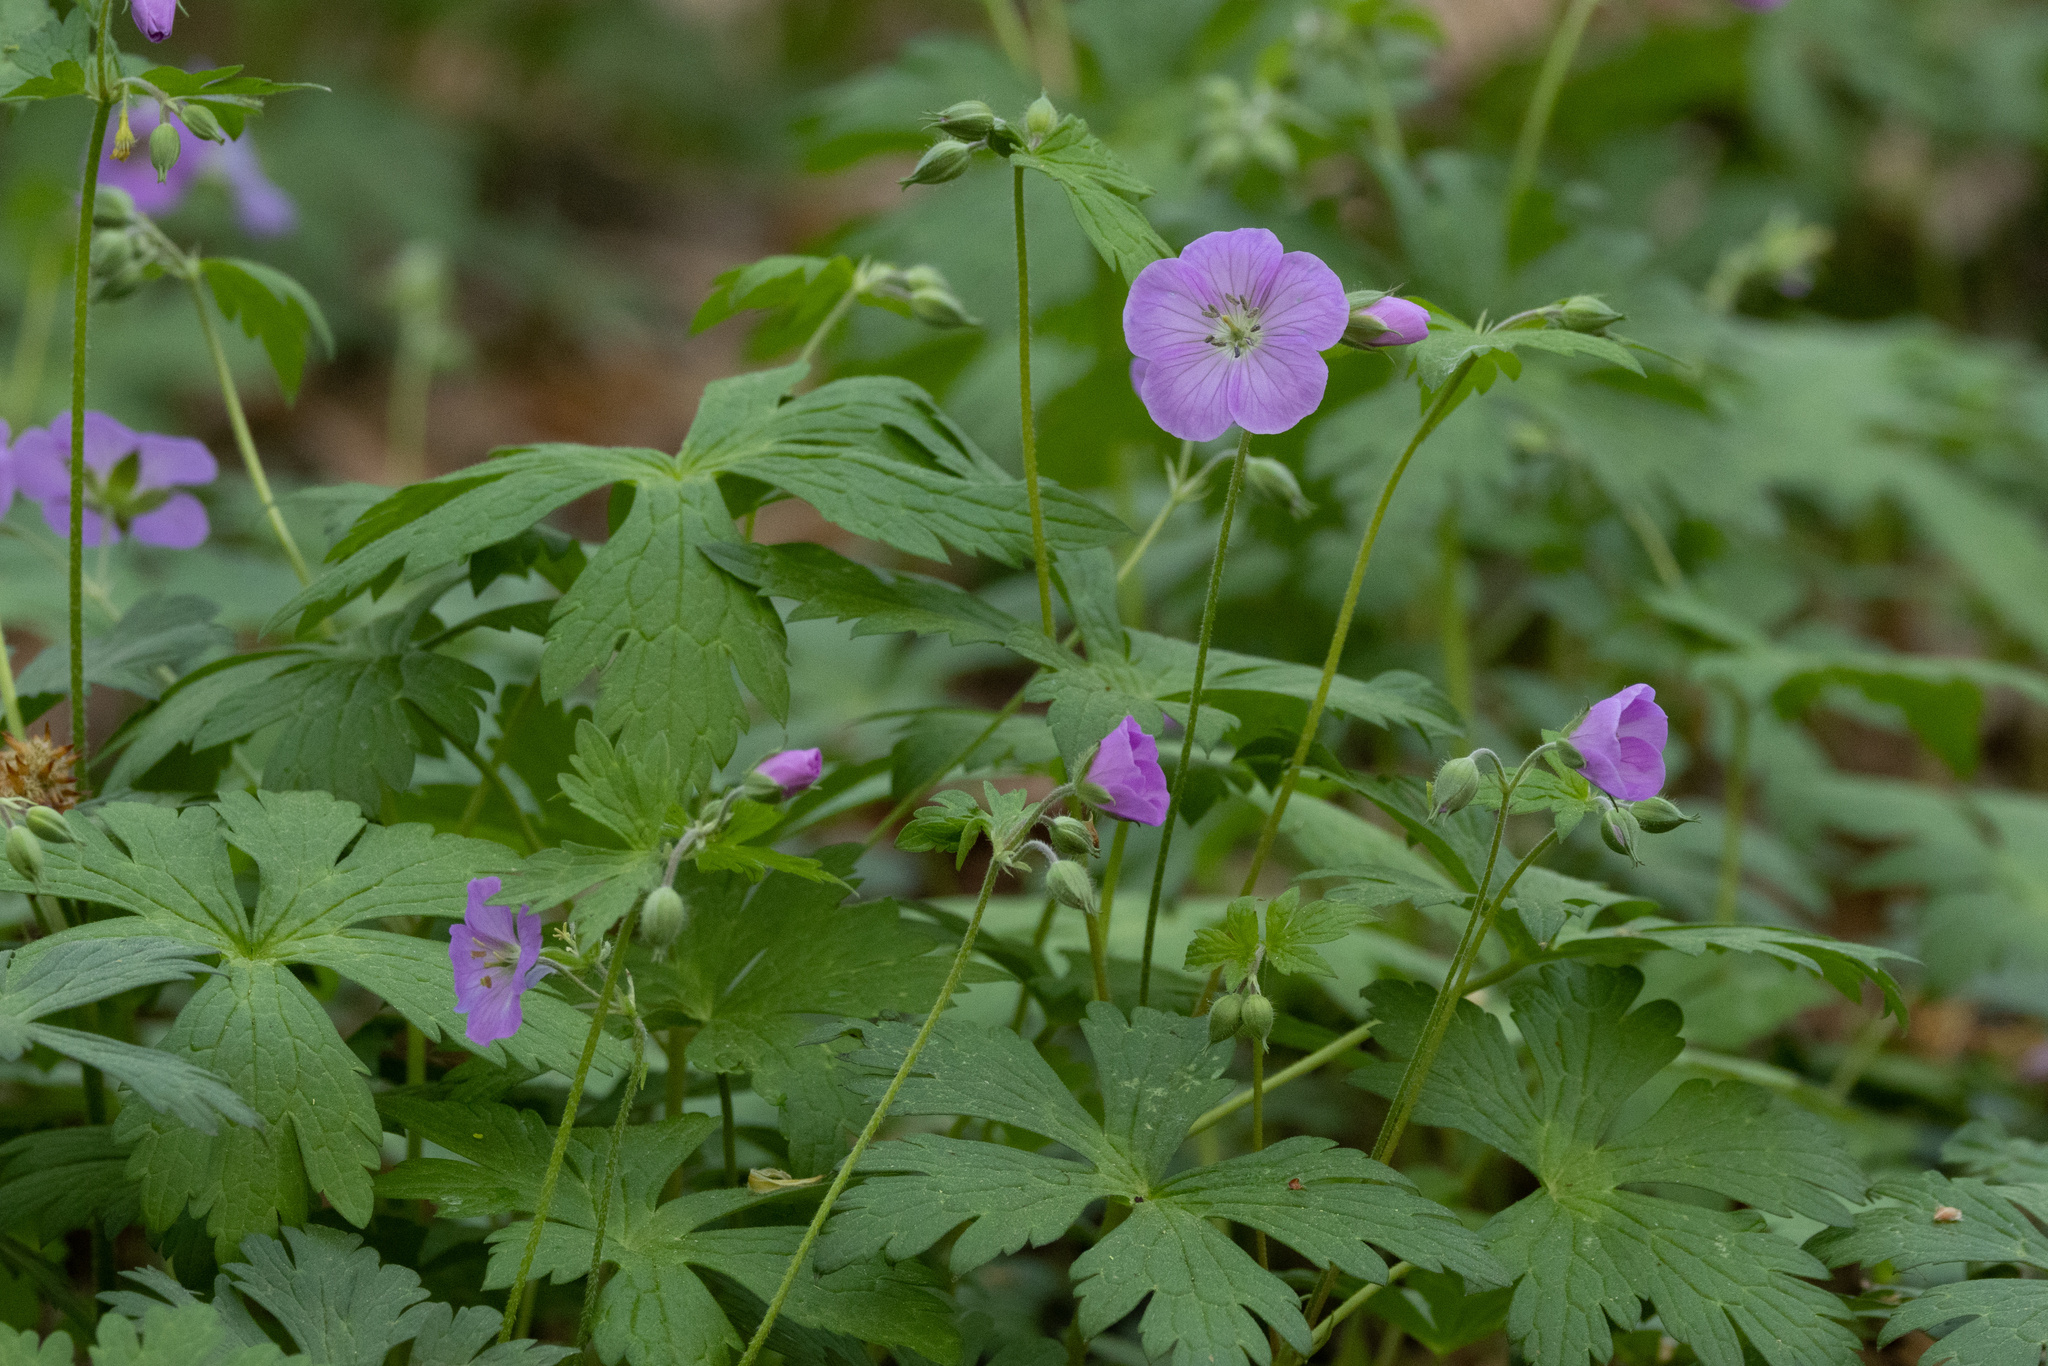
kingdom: Plantae
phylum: Tracheophyta
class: Magnoliopsida
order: Geraniales
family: Geraniaceae
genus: Geranium
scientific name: Geranium maculatum
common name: Spotted geranium
